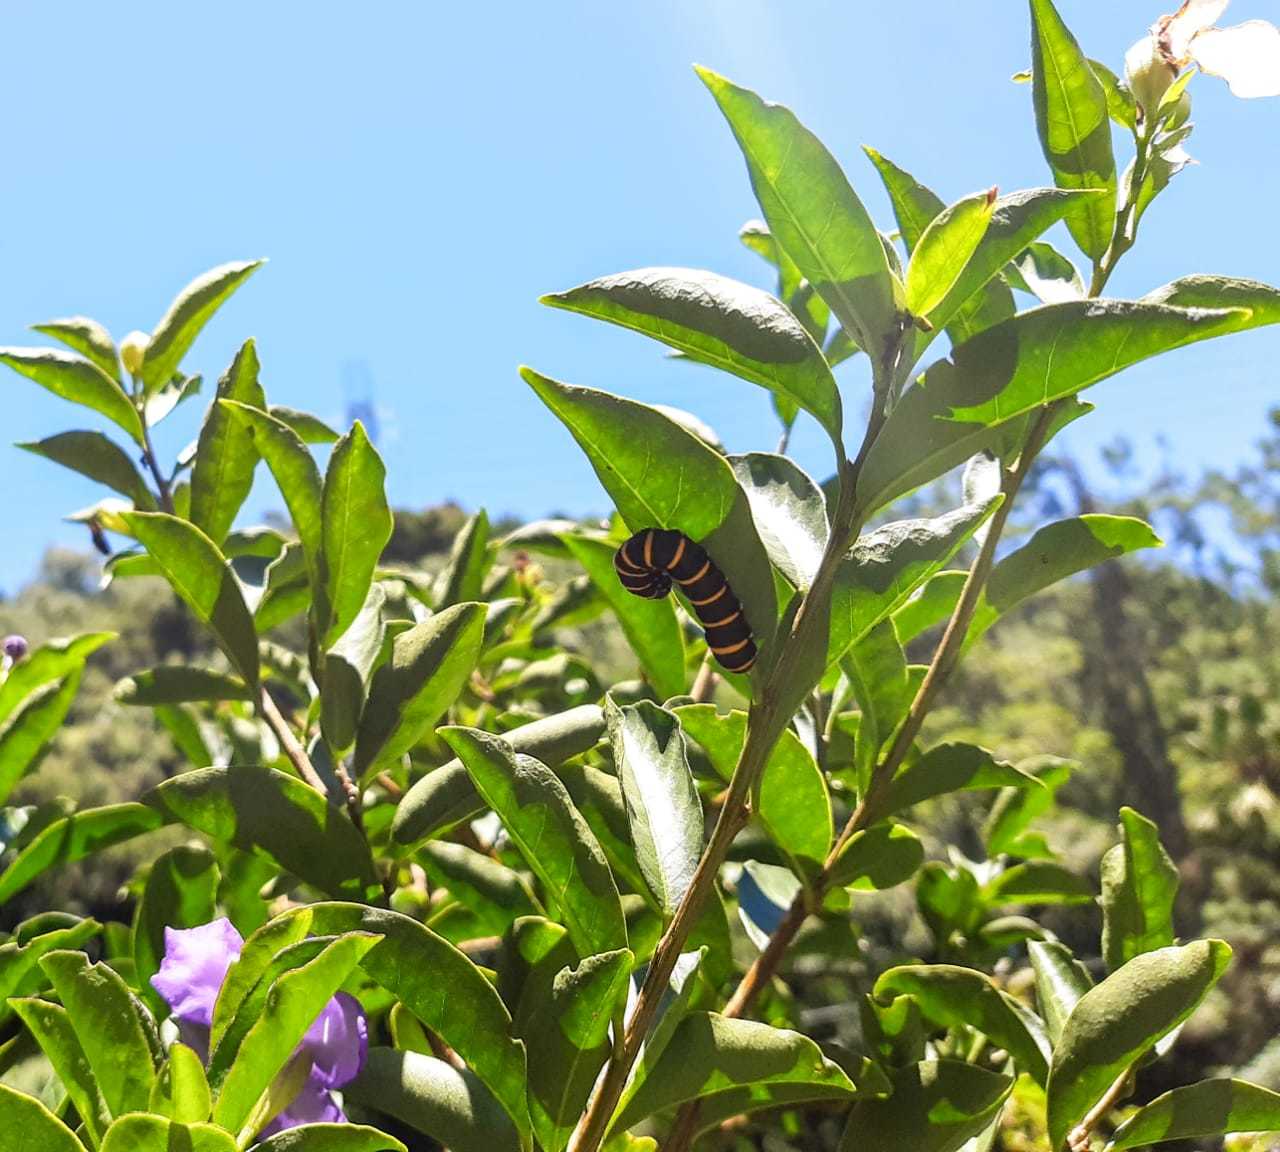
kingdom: Animalia
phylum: Arthropoda
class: Insecta
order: Lepidoptera
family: Nymphalidae
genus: Methona
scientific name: Methona themisto
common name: Themisto amberwing
